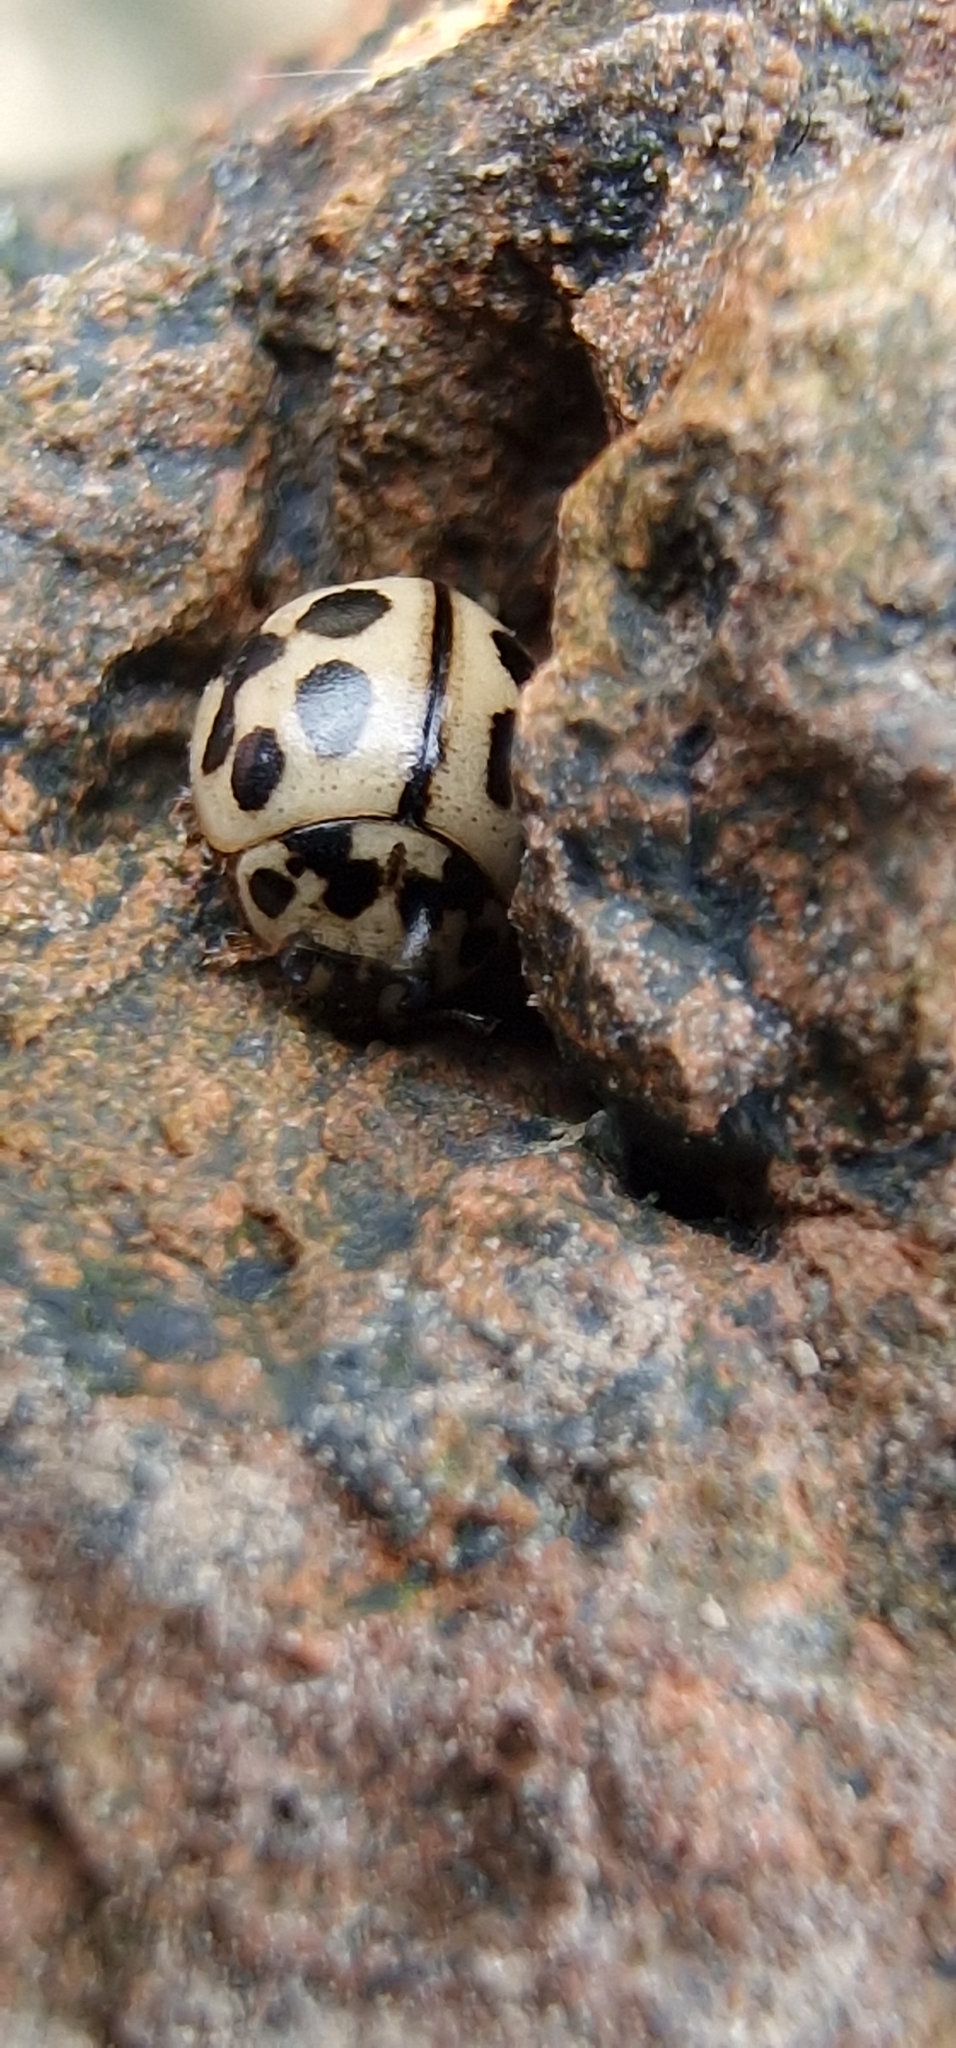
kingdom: Animalia
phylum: Arthropoda
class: Insecta
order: Coleoptera
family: Coccinellidae
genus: Tytthaspis
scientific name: Tytthaspis sedecimpunctata
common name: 16-spot ladybird
